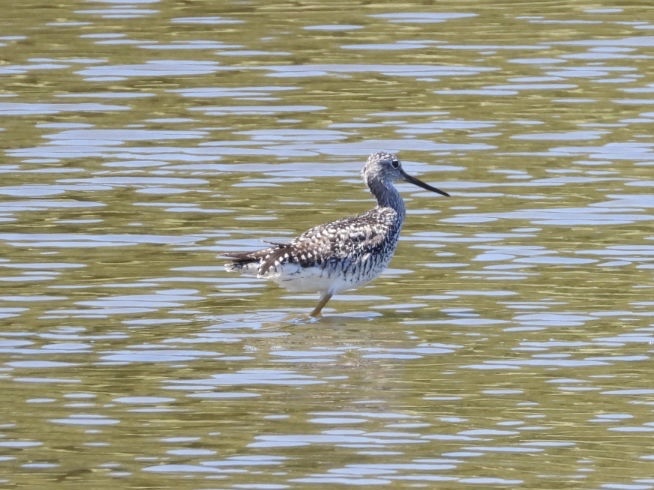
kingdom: Animalia
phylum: Chordata
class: Aves
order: Charadriiformes
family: Scolopacidae
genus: Tringa
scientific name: Tringa melanoleuca
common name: Greater yellowlegs
